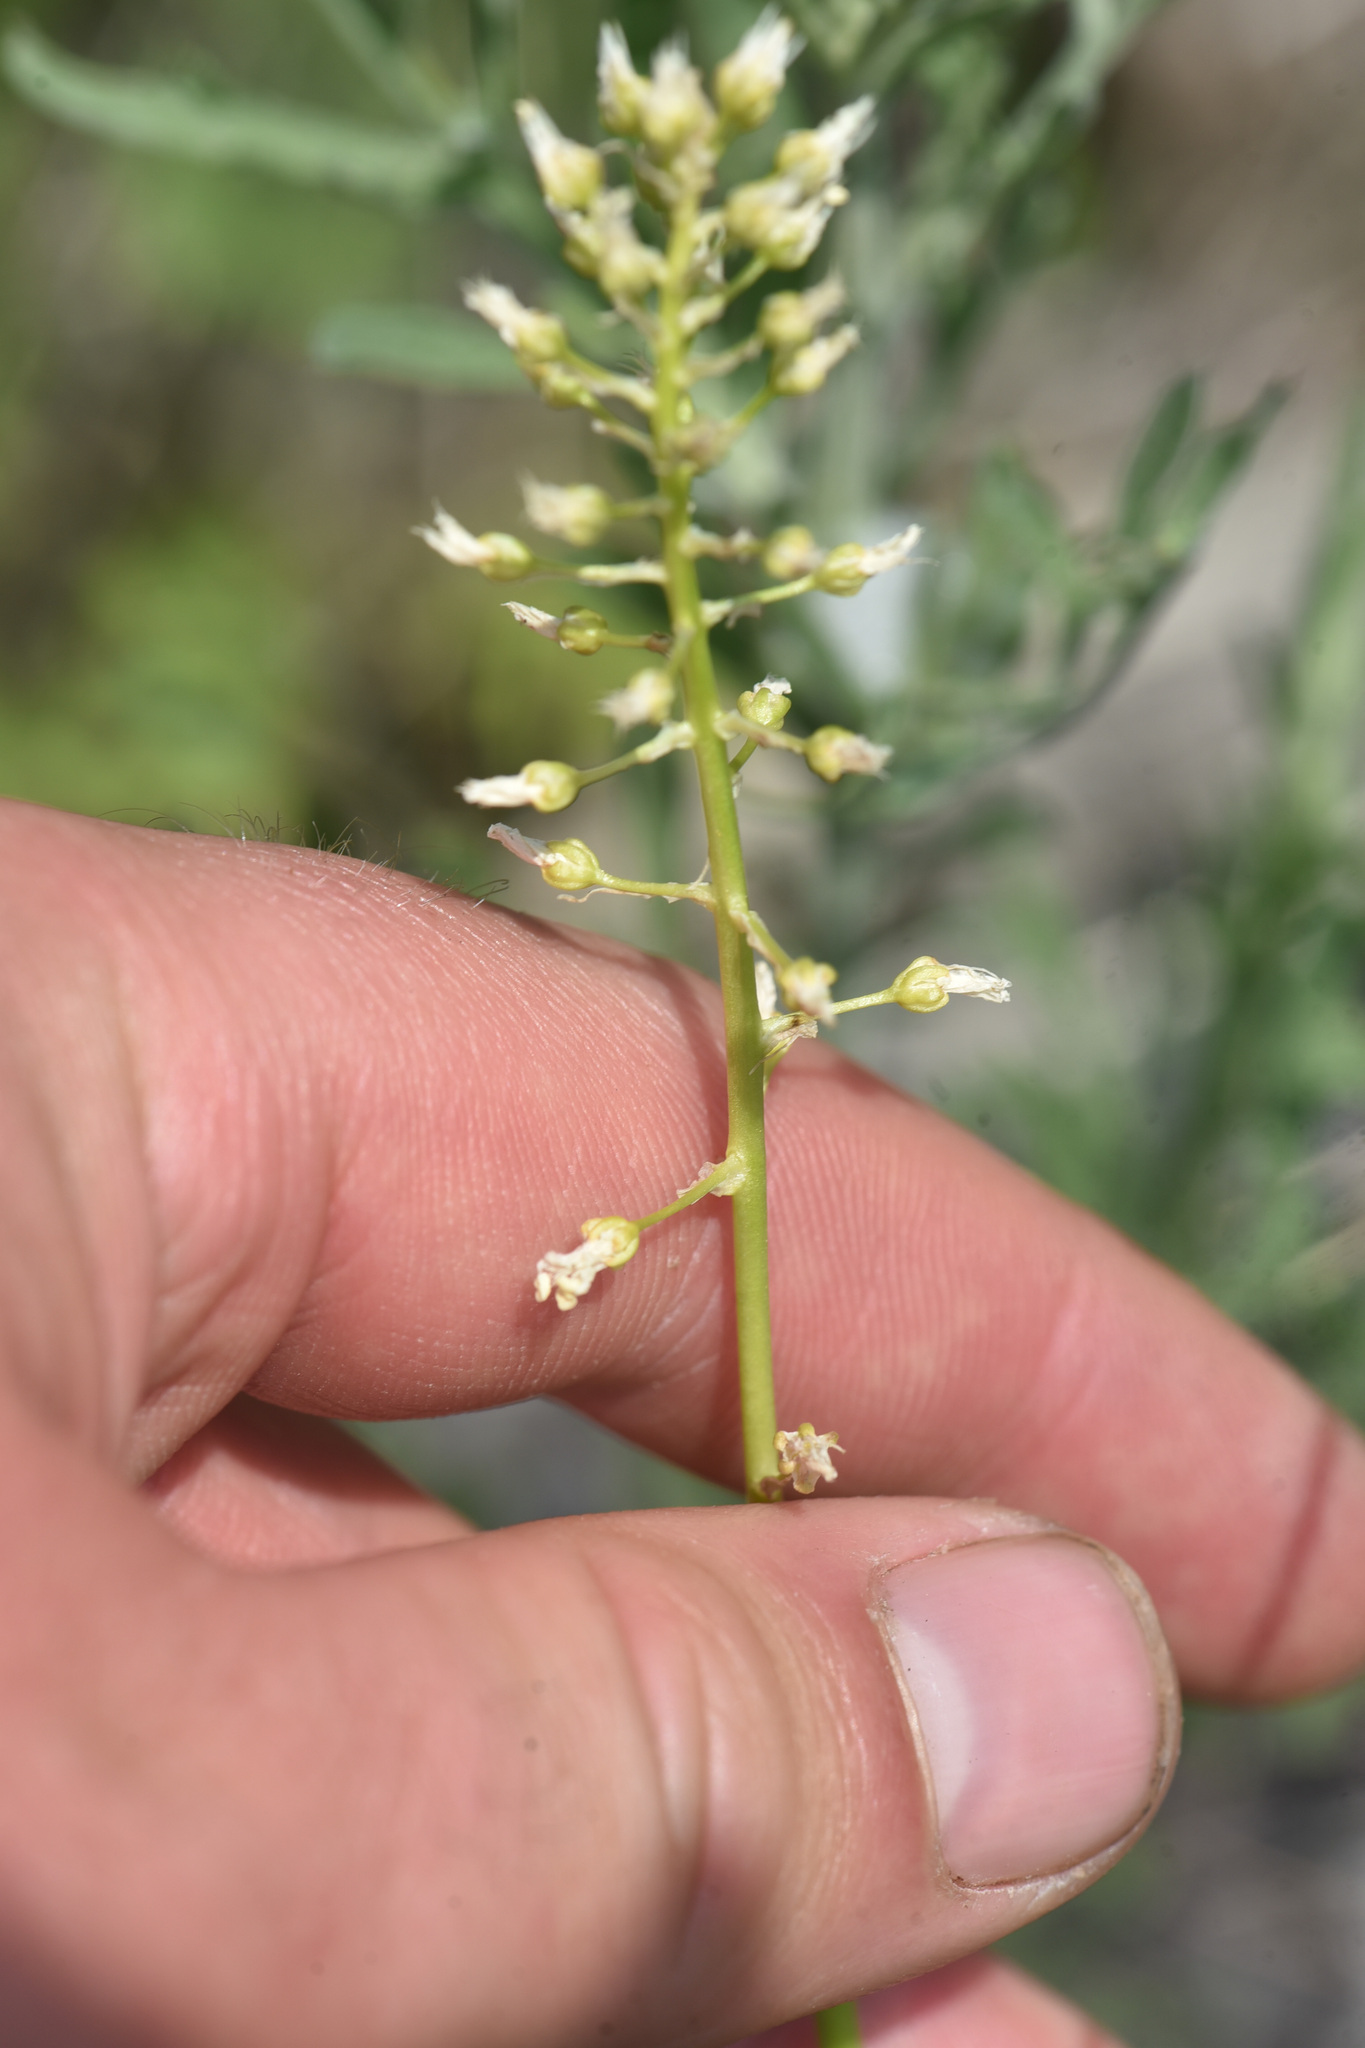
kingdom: Plantae
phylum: Tracheophyta
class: Liliopsida
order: Liliales
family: Melanthiaceae
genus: Toxicoscordion
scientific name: Toxicoscordion venenosum
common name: Meadow death camas
